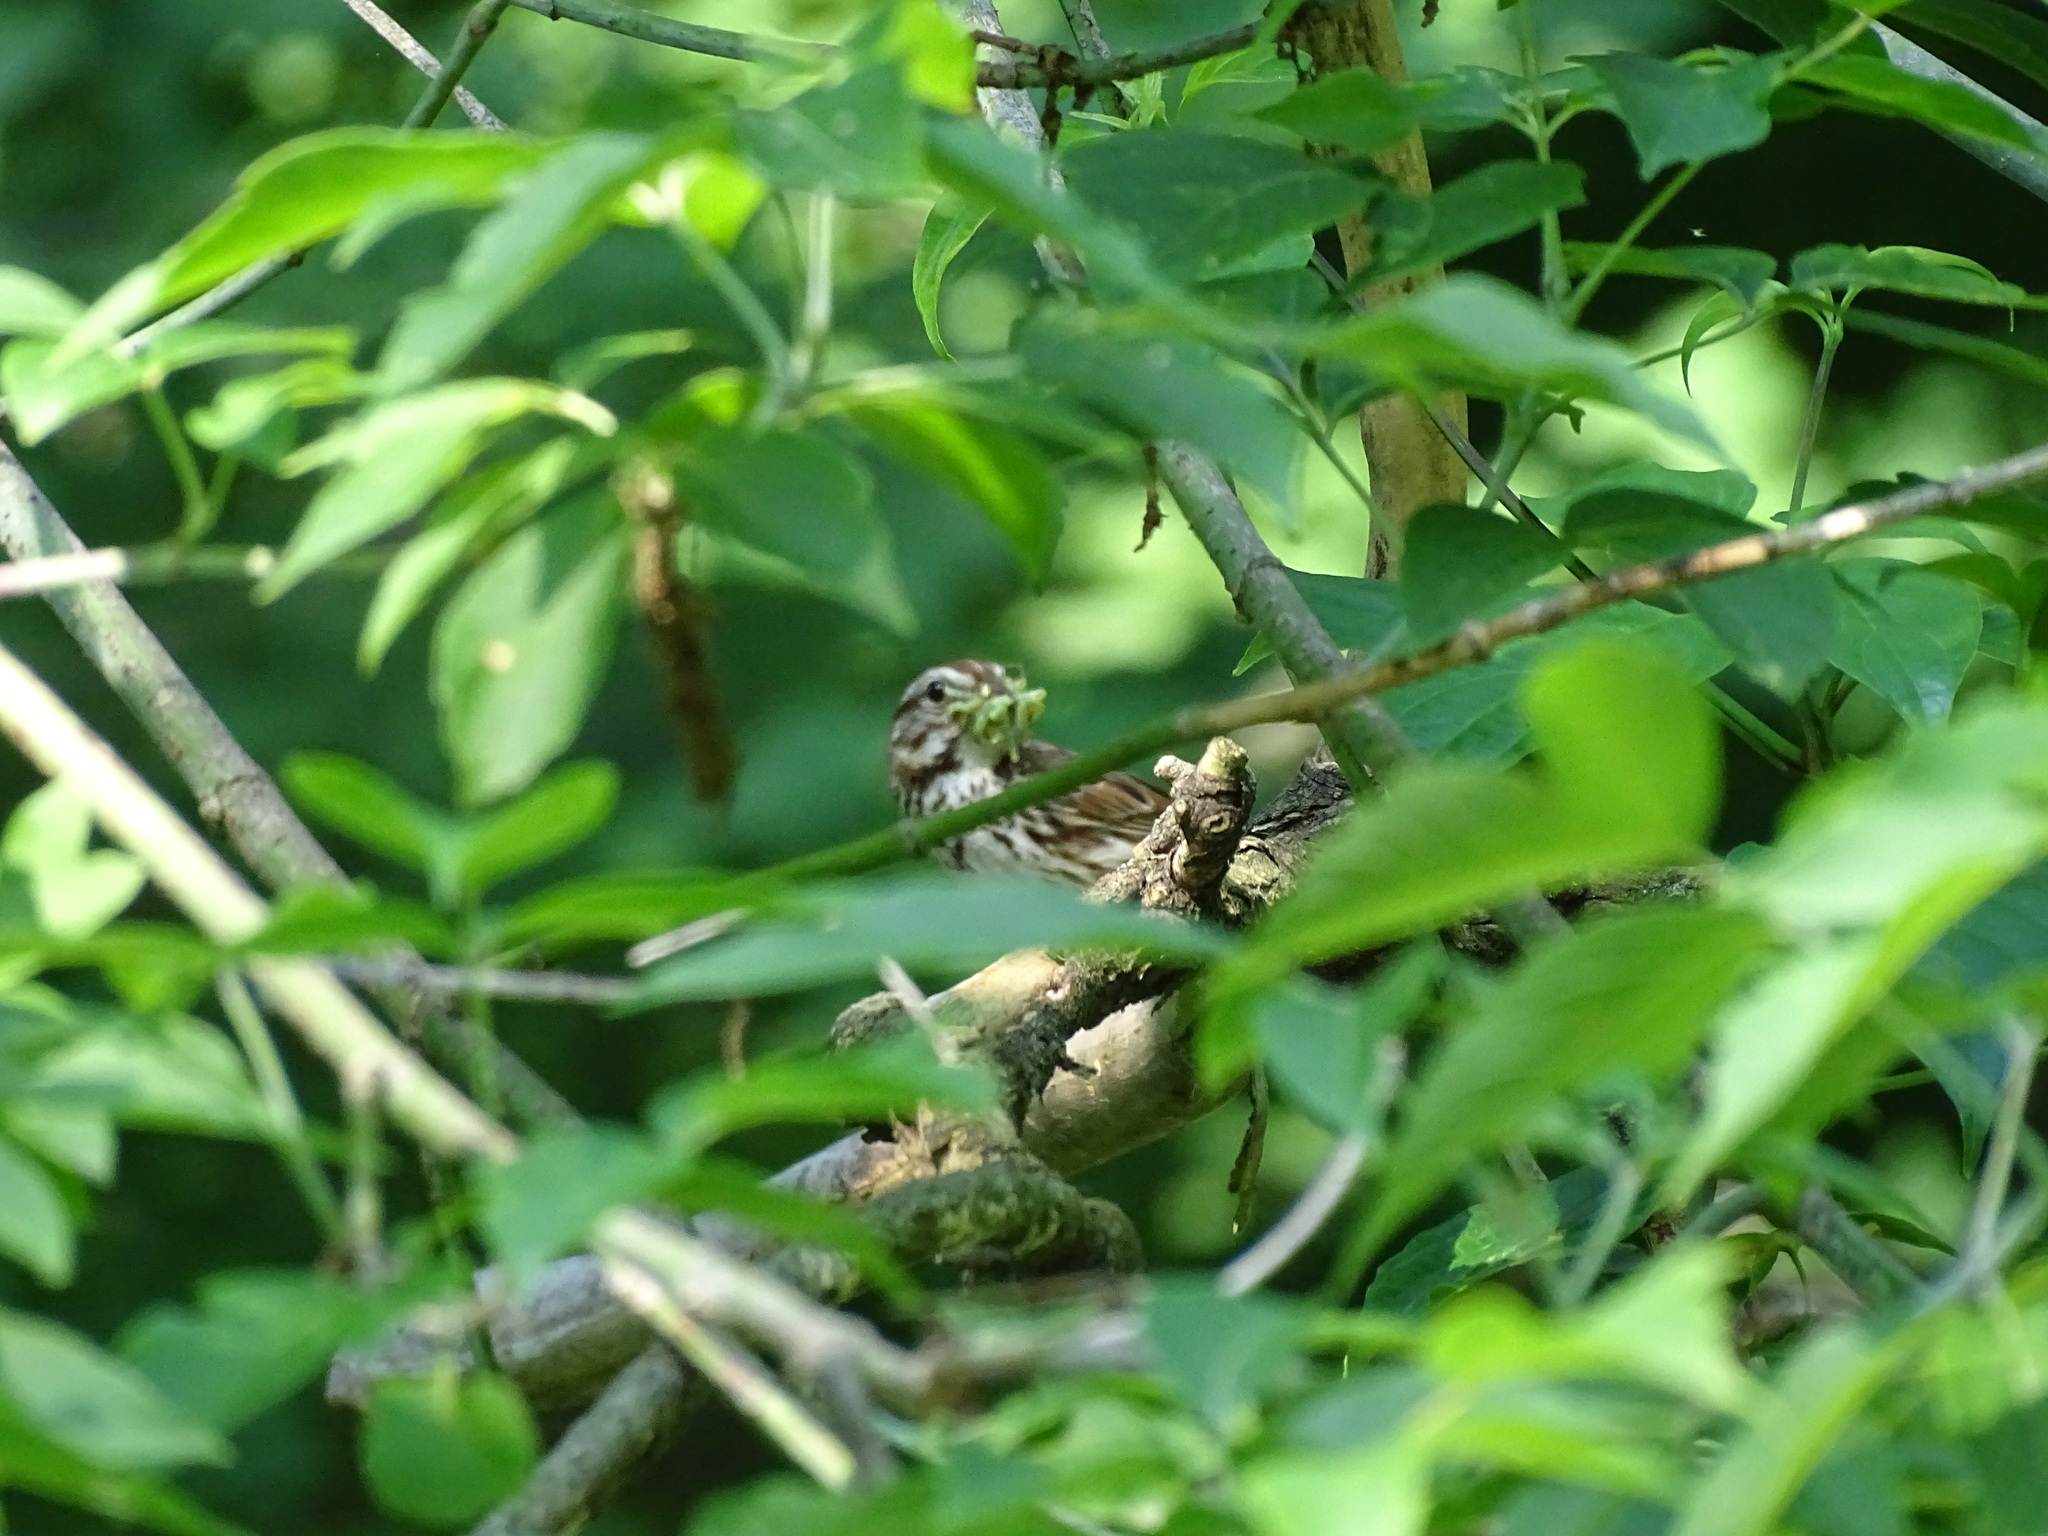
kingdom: Animalia
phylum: Chordata
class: Aves
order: Passeriformes
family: Passerellidae
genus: Melospiza
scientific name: Melospiza melodia
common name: Song sparrow
